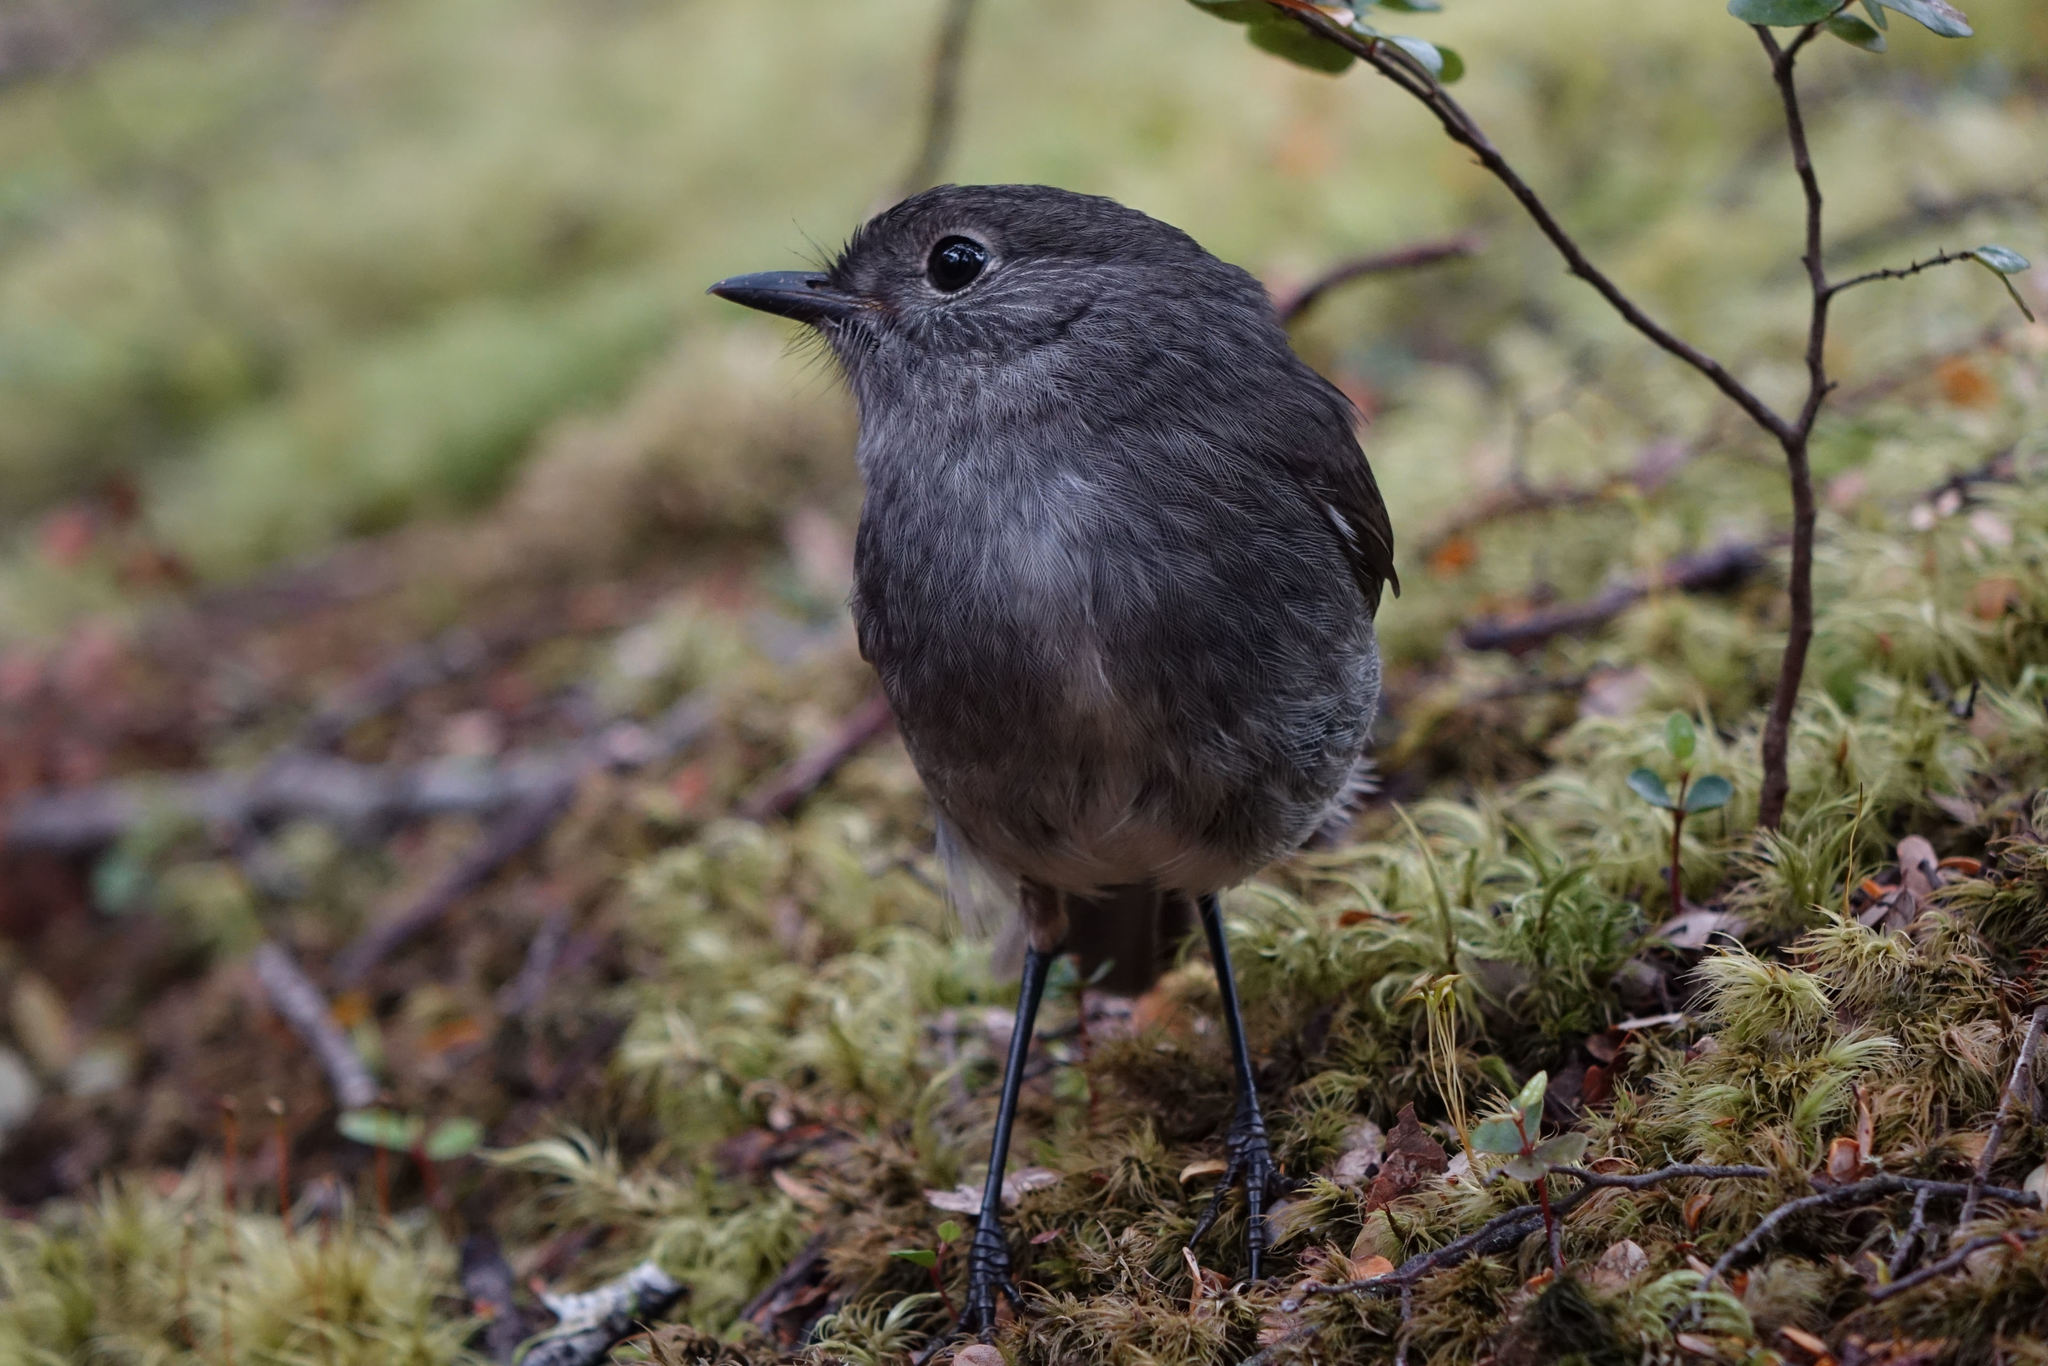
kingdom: Animalia
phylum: Chordata
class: Aves
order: Passeriformes
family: Petroicidae
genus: Petroica
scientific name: Petroica australis
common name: New zealand robin
